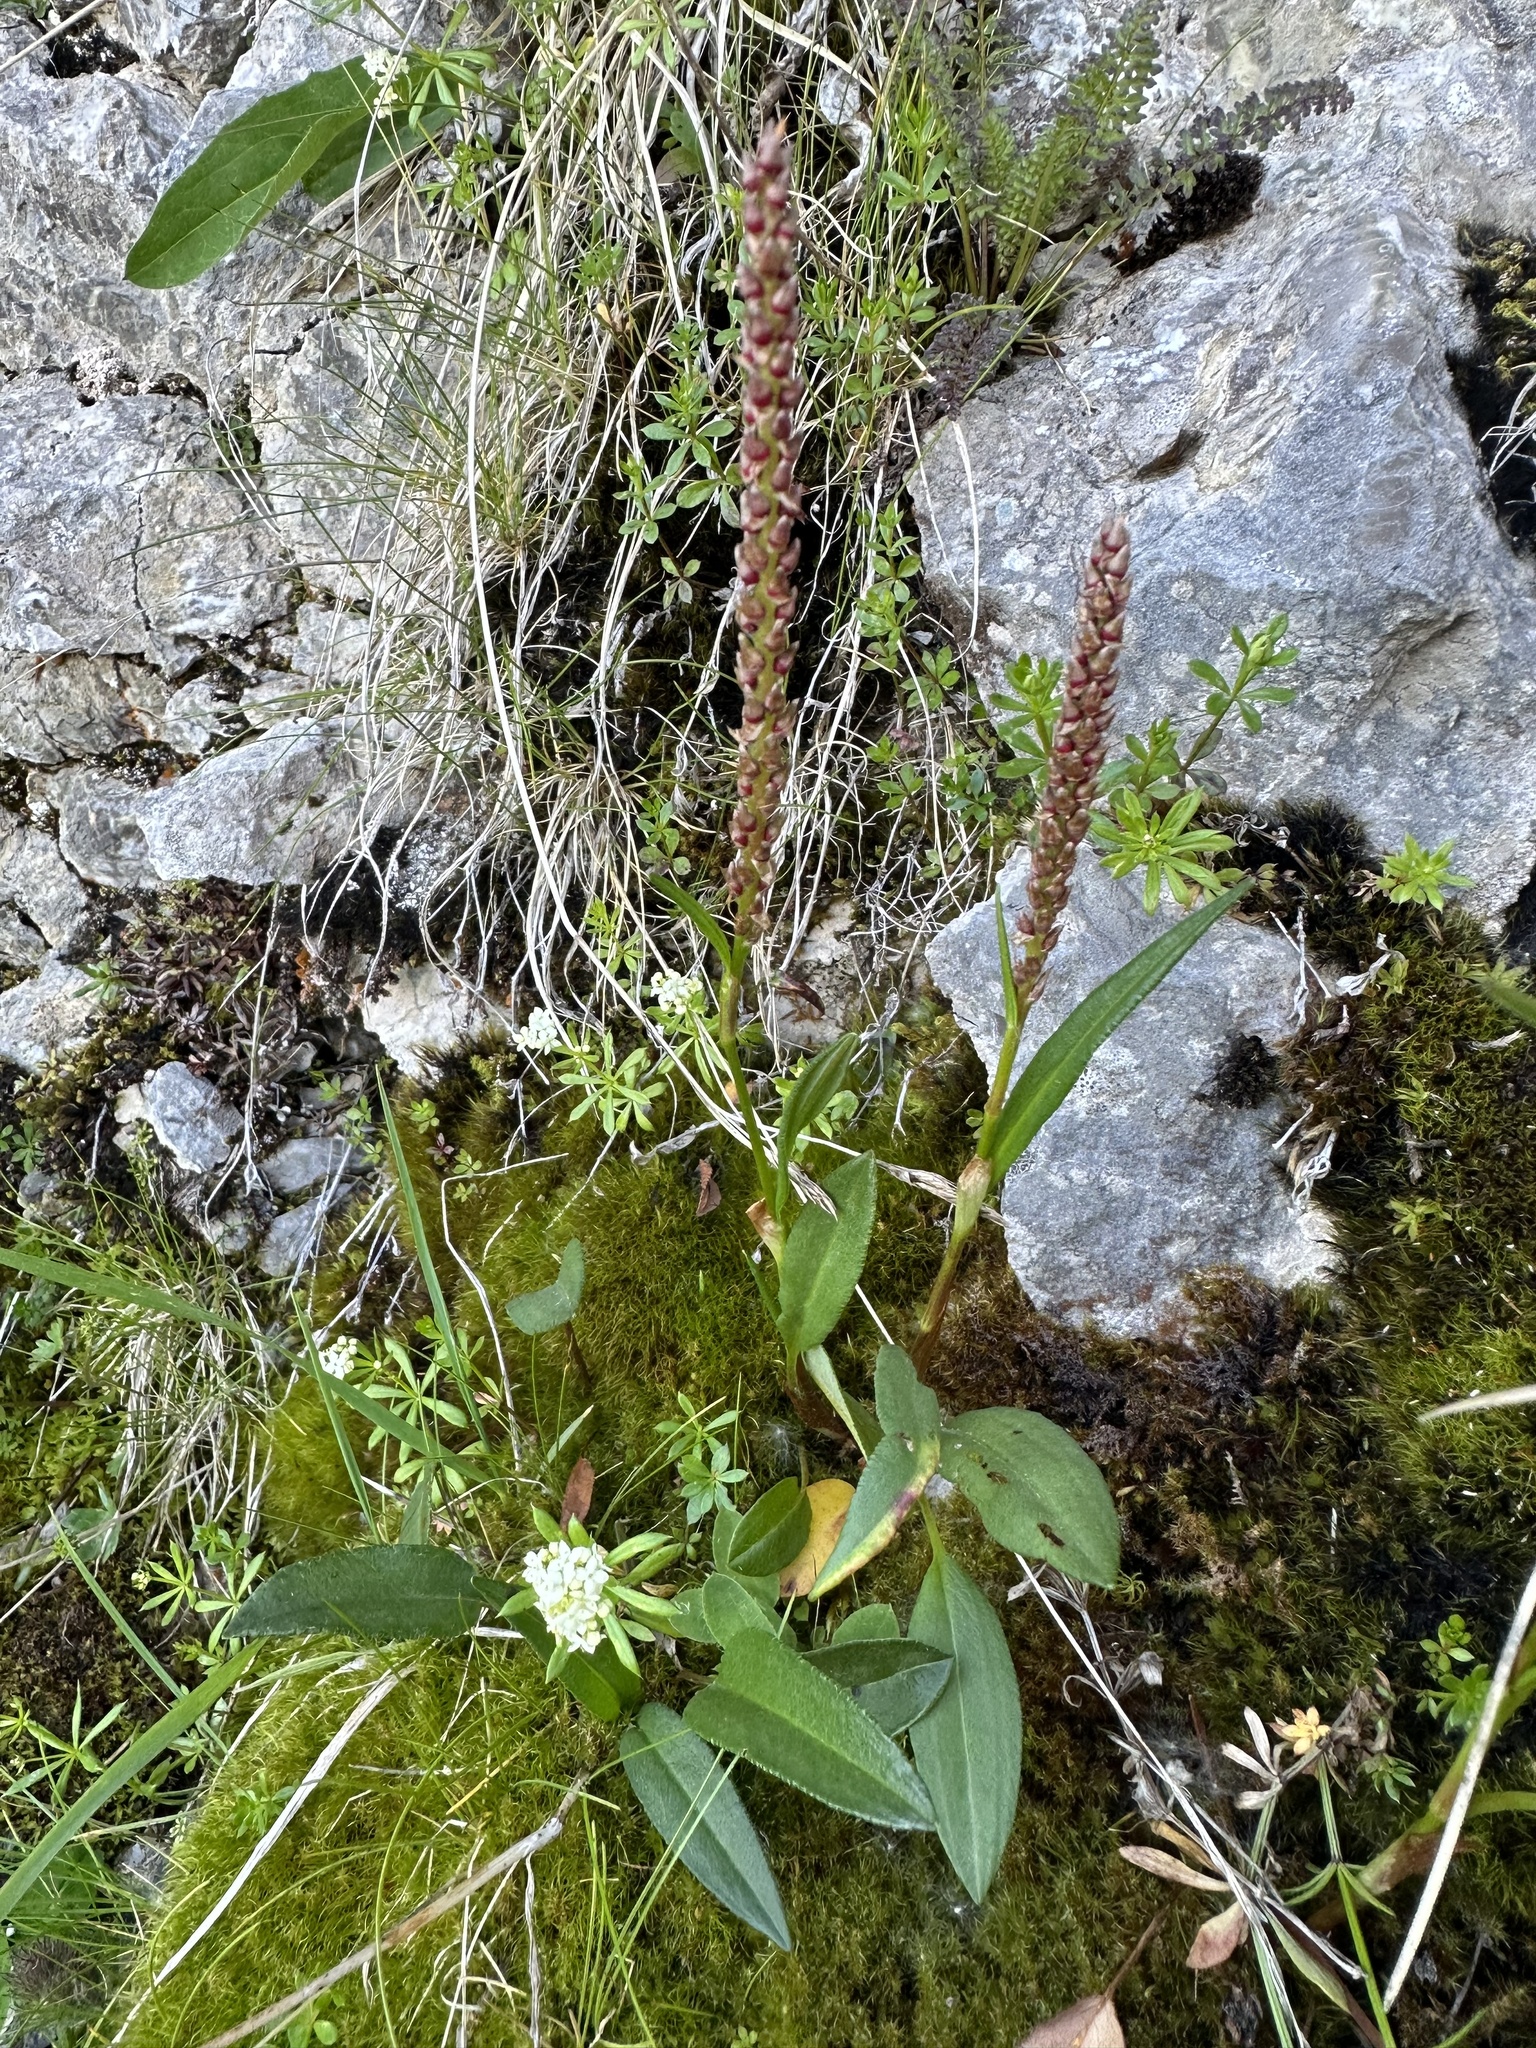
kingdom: Plantae
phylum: Tracheophyta
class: Magnoliopsida
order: Caryophyllales
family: Polygonaceae
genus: Bistorta
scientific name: Bistorta vivipara
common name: Alpine bistort
